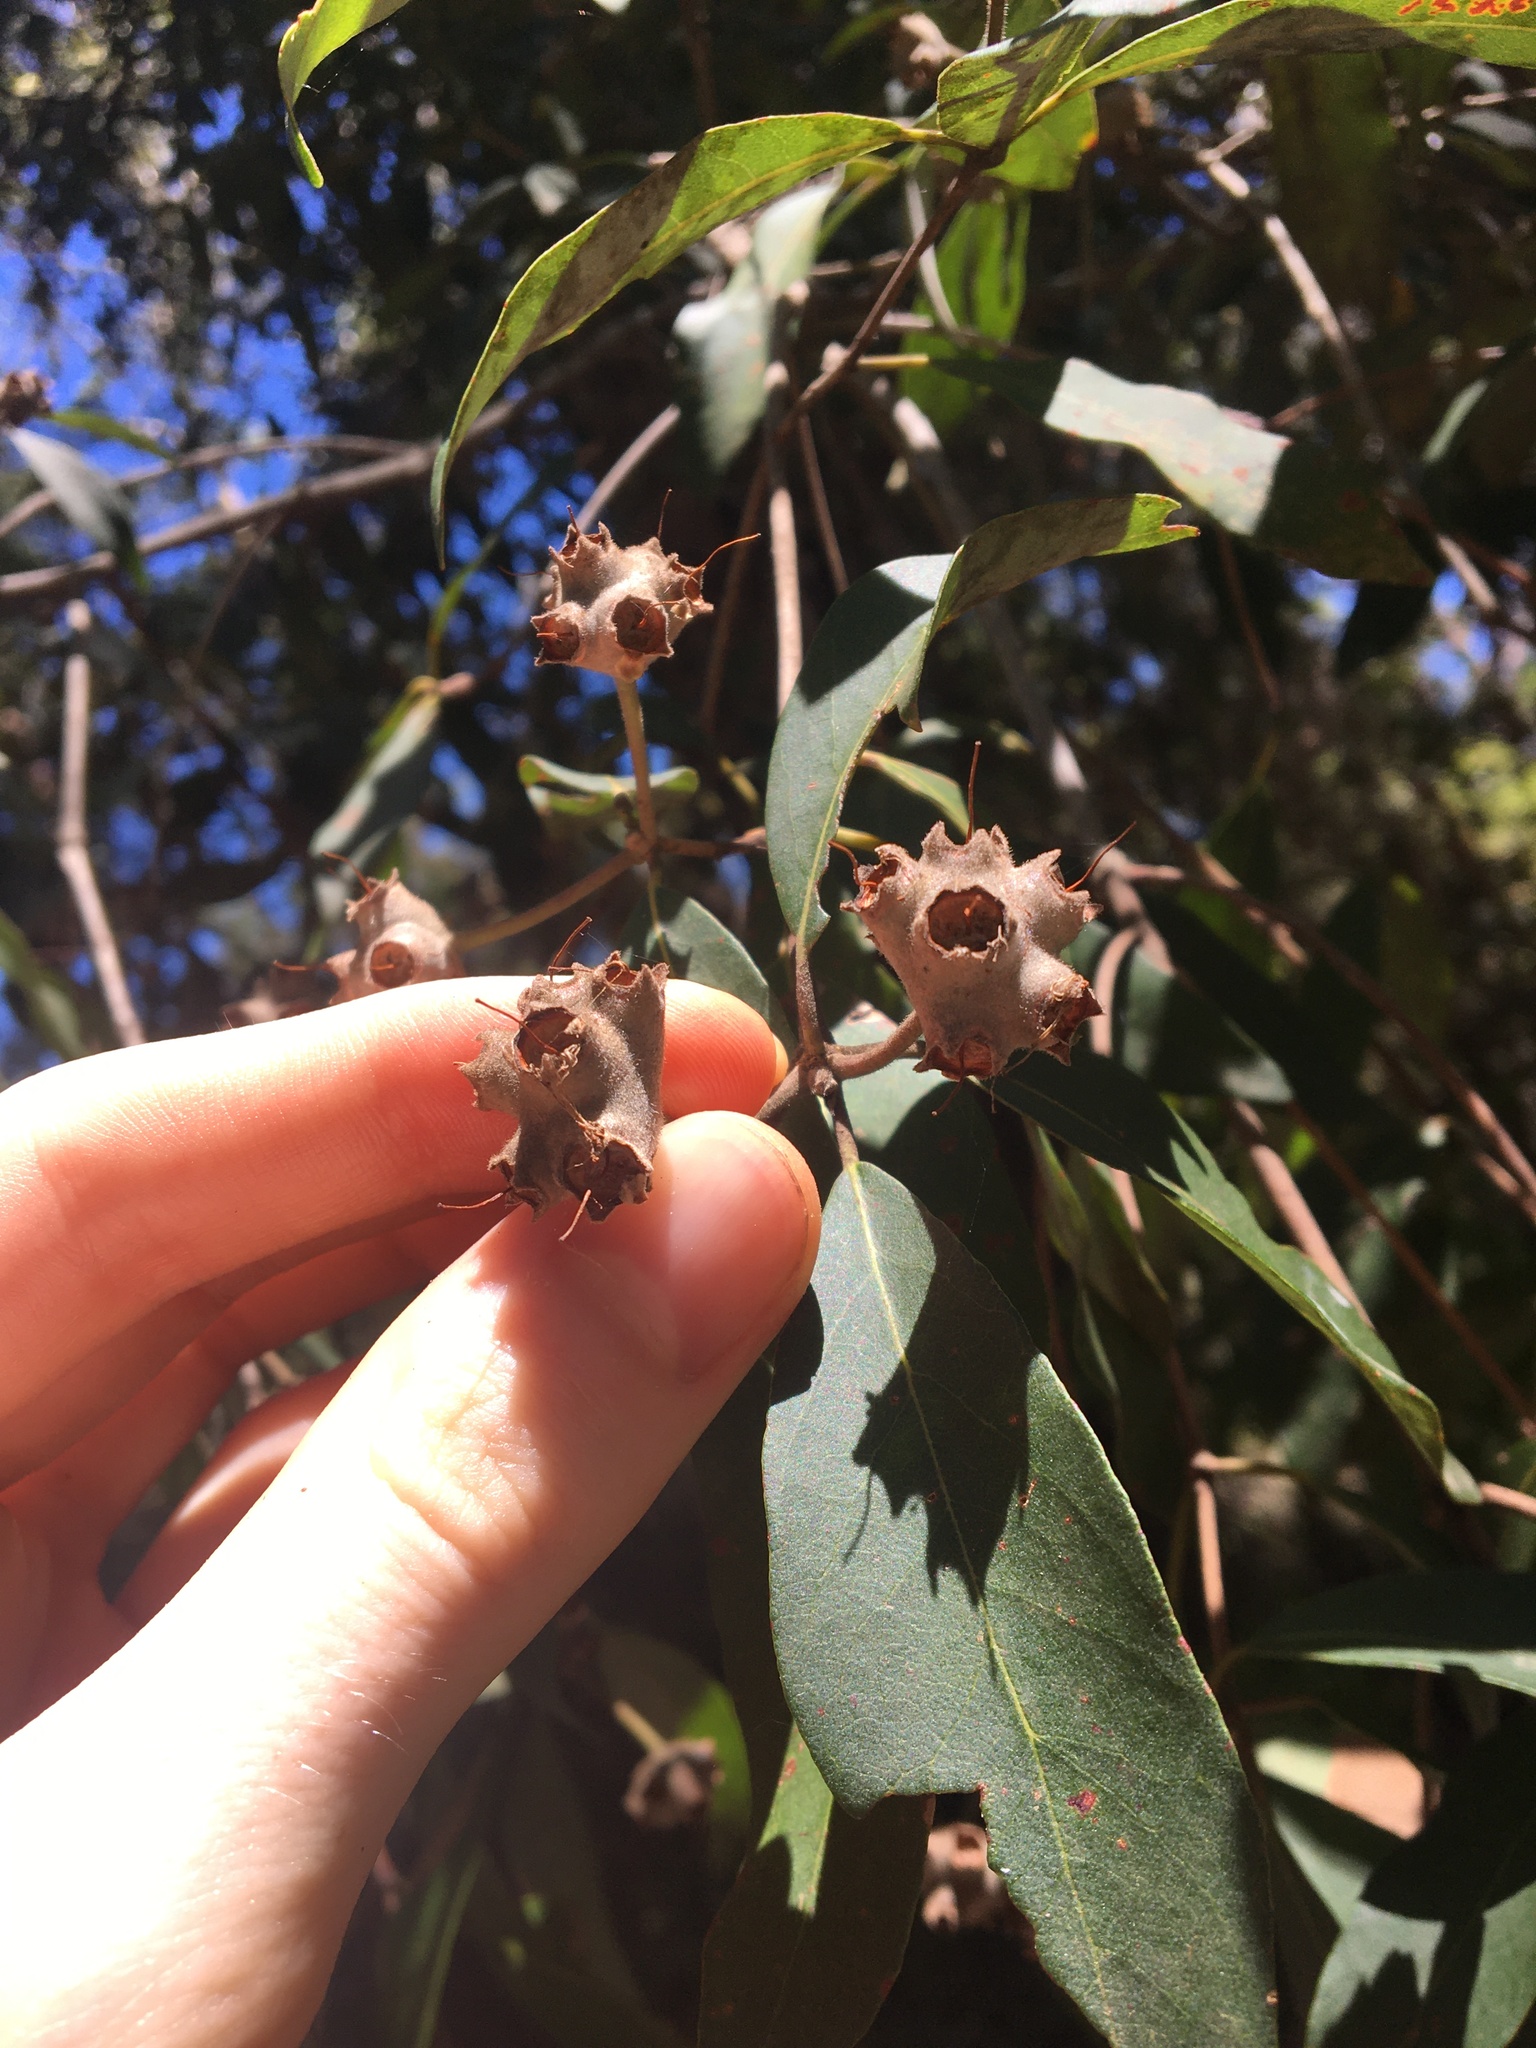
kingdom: Plantae
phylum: Tracheophyta
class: Magnoliopsida
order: Myrtales
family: Myrtaceae
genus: Syncarpia
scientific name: Syncarpia glomulifera
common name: Turpentine tree
